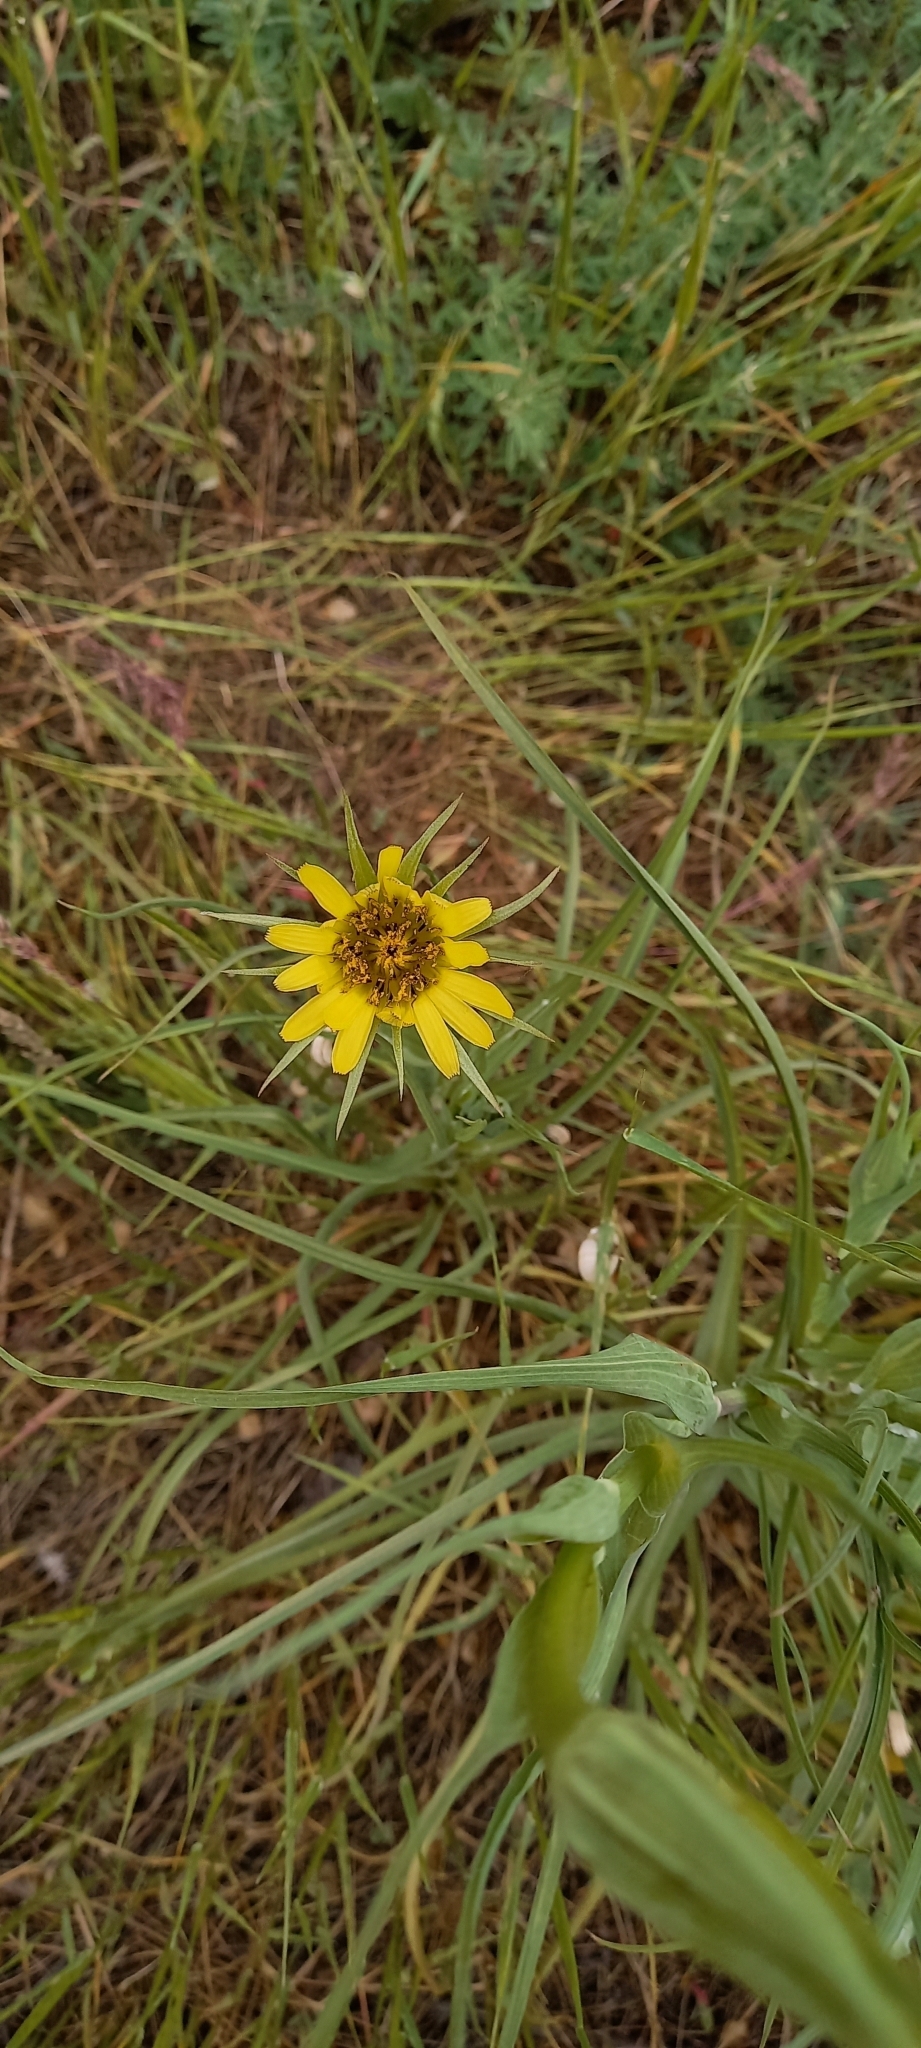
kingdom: Plantae
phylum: Tracheophyta
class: Magnoliopsida
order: Asterales
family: Asteraceae
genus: Tragopogon
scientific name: Tragopogon dubius
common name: Yellow salsify
